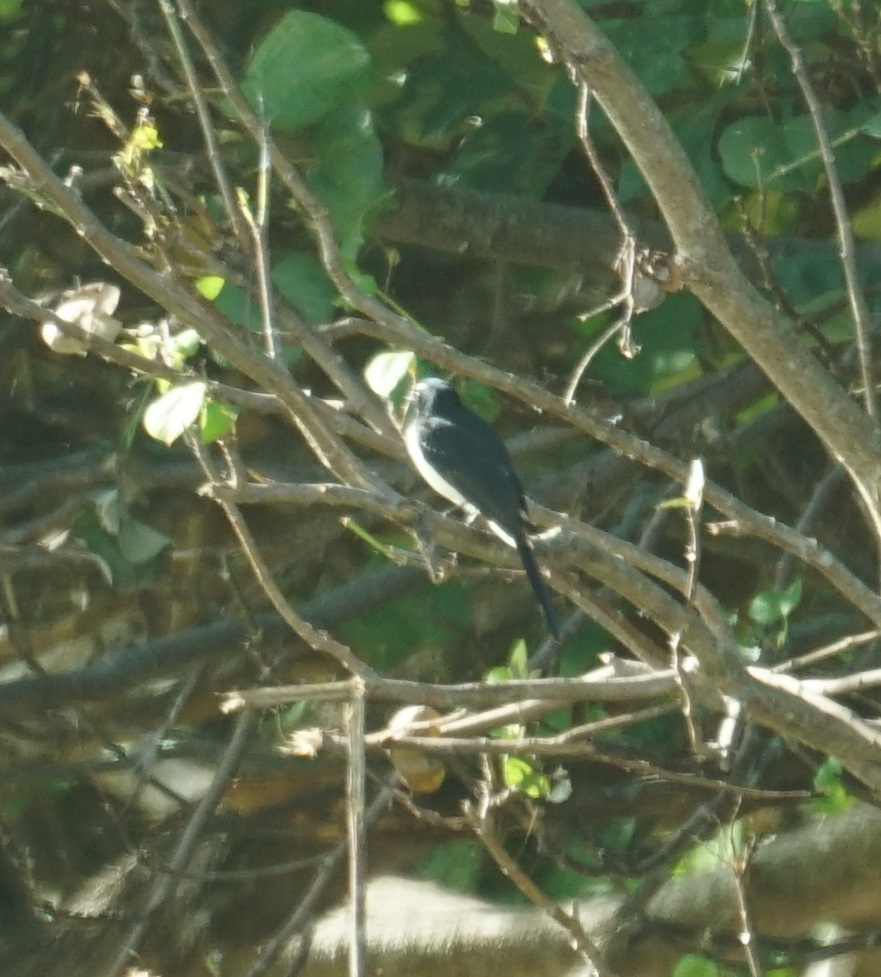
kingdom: Animalia
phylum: Chordata
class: Aves
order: Passeriformes
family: Rhipiduridae
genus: Rhipidura
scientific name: Rhipidura leucophrys
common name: Willie wagtail
